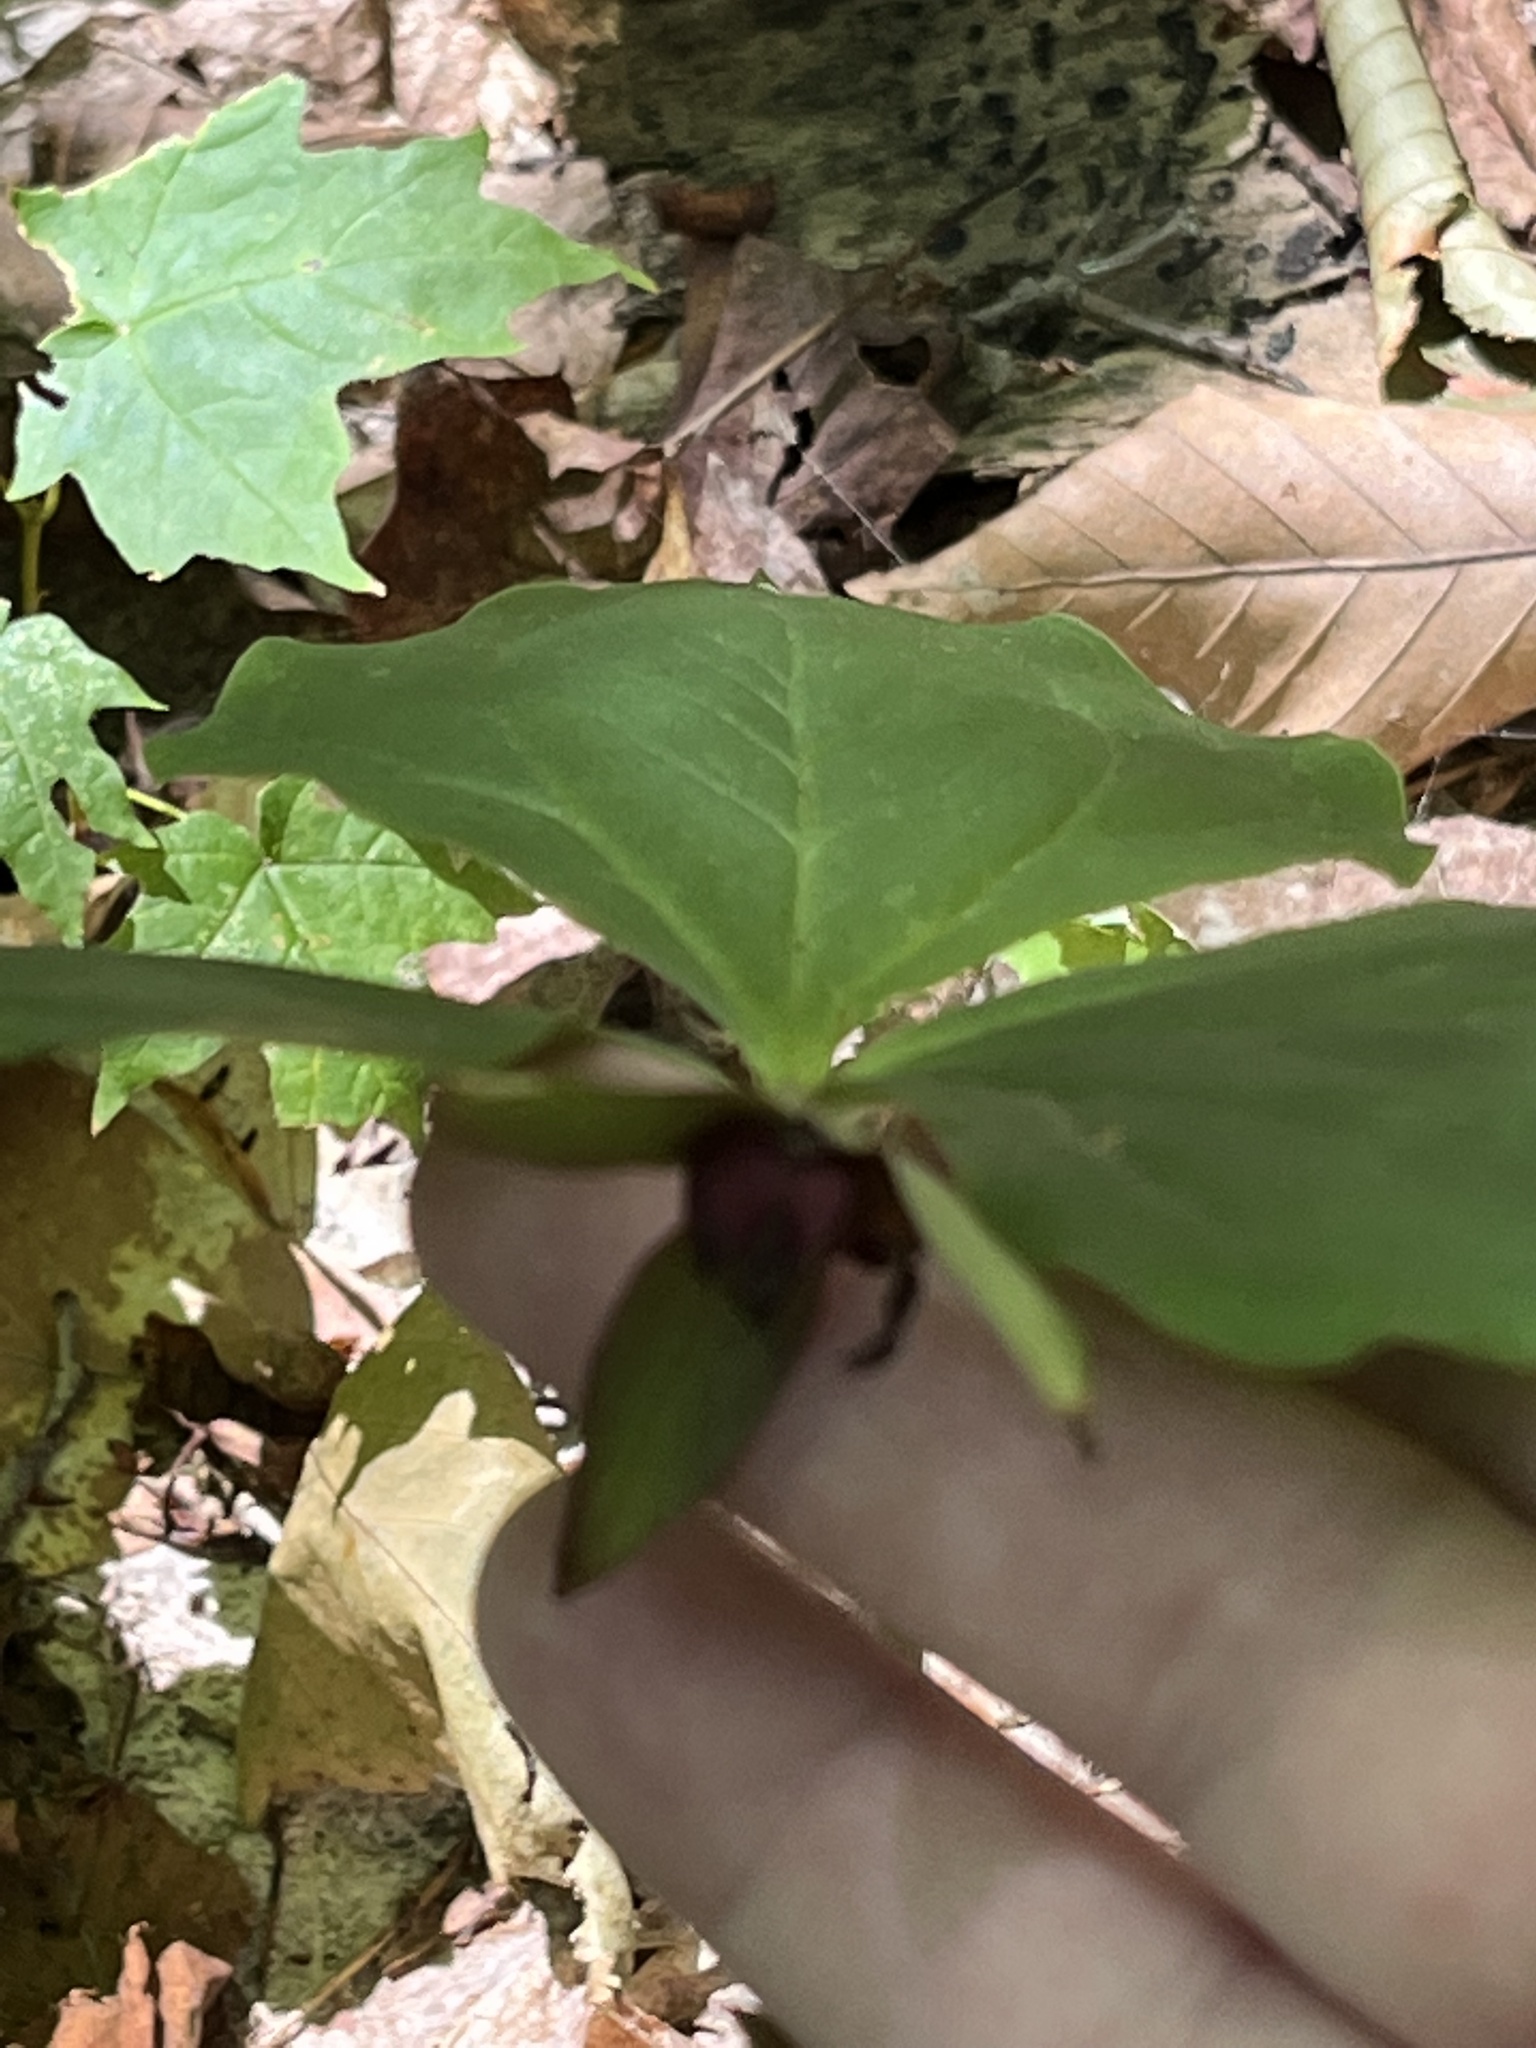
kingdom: Plantae
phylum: Tracheophyta
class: Liliopsida
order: Liliales
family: Melanthiaceae
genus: Trillium
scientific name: Trillium erectum
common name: Purple trillium
